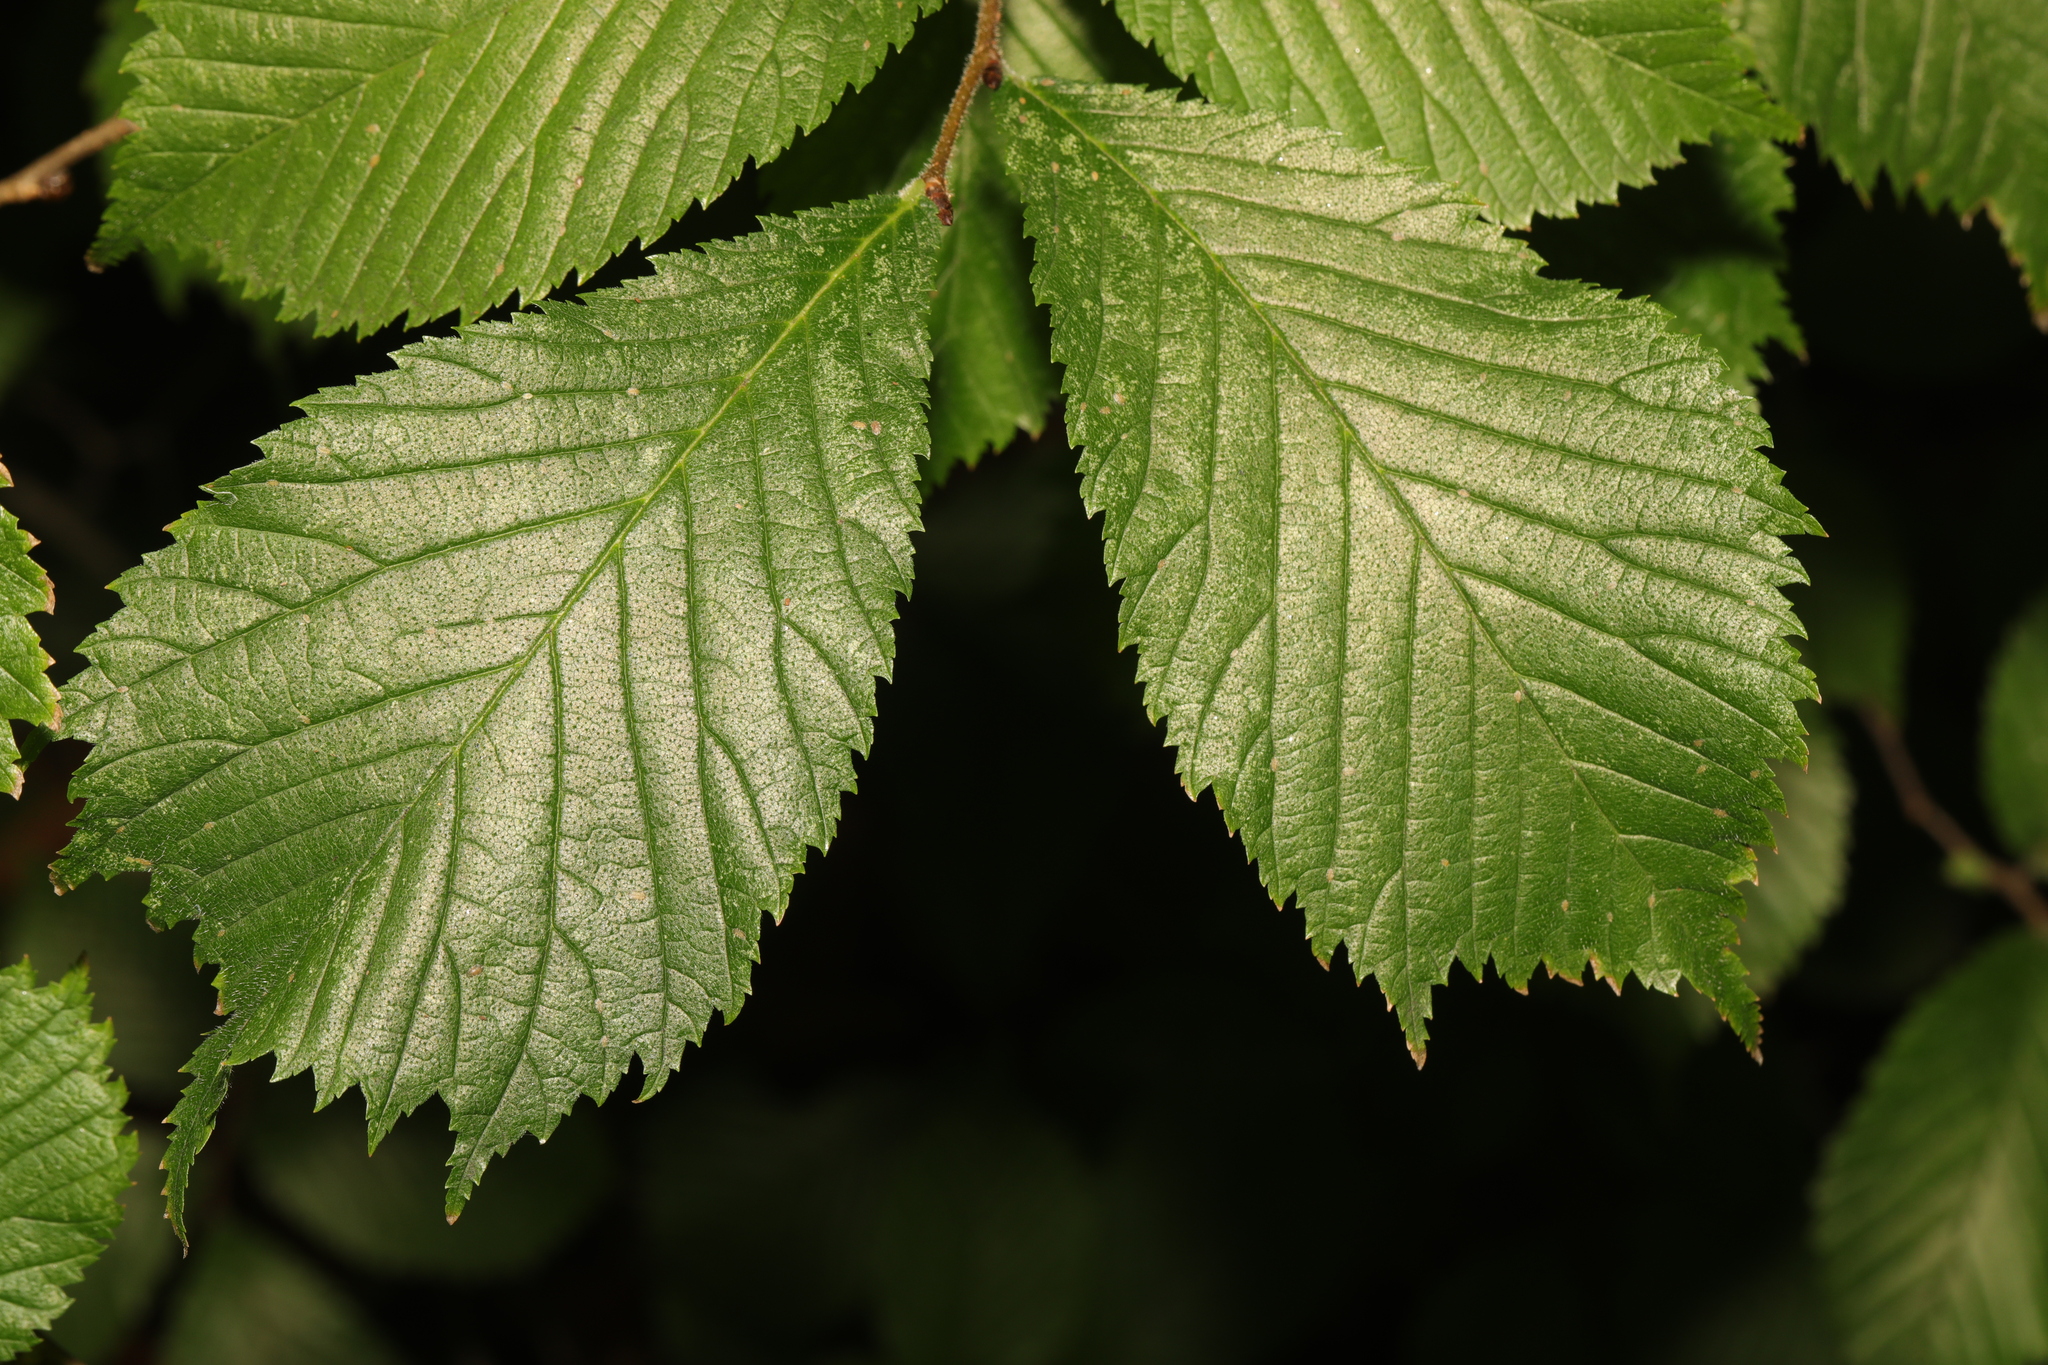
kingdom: Plantae
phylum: Tracheophyta
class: Magnoliopsida
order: Rosales
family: Ulmaceae
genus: Ulmus
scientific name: Ulmus glabra
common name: Wych elm
